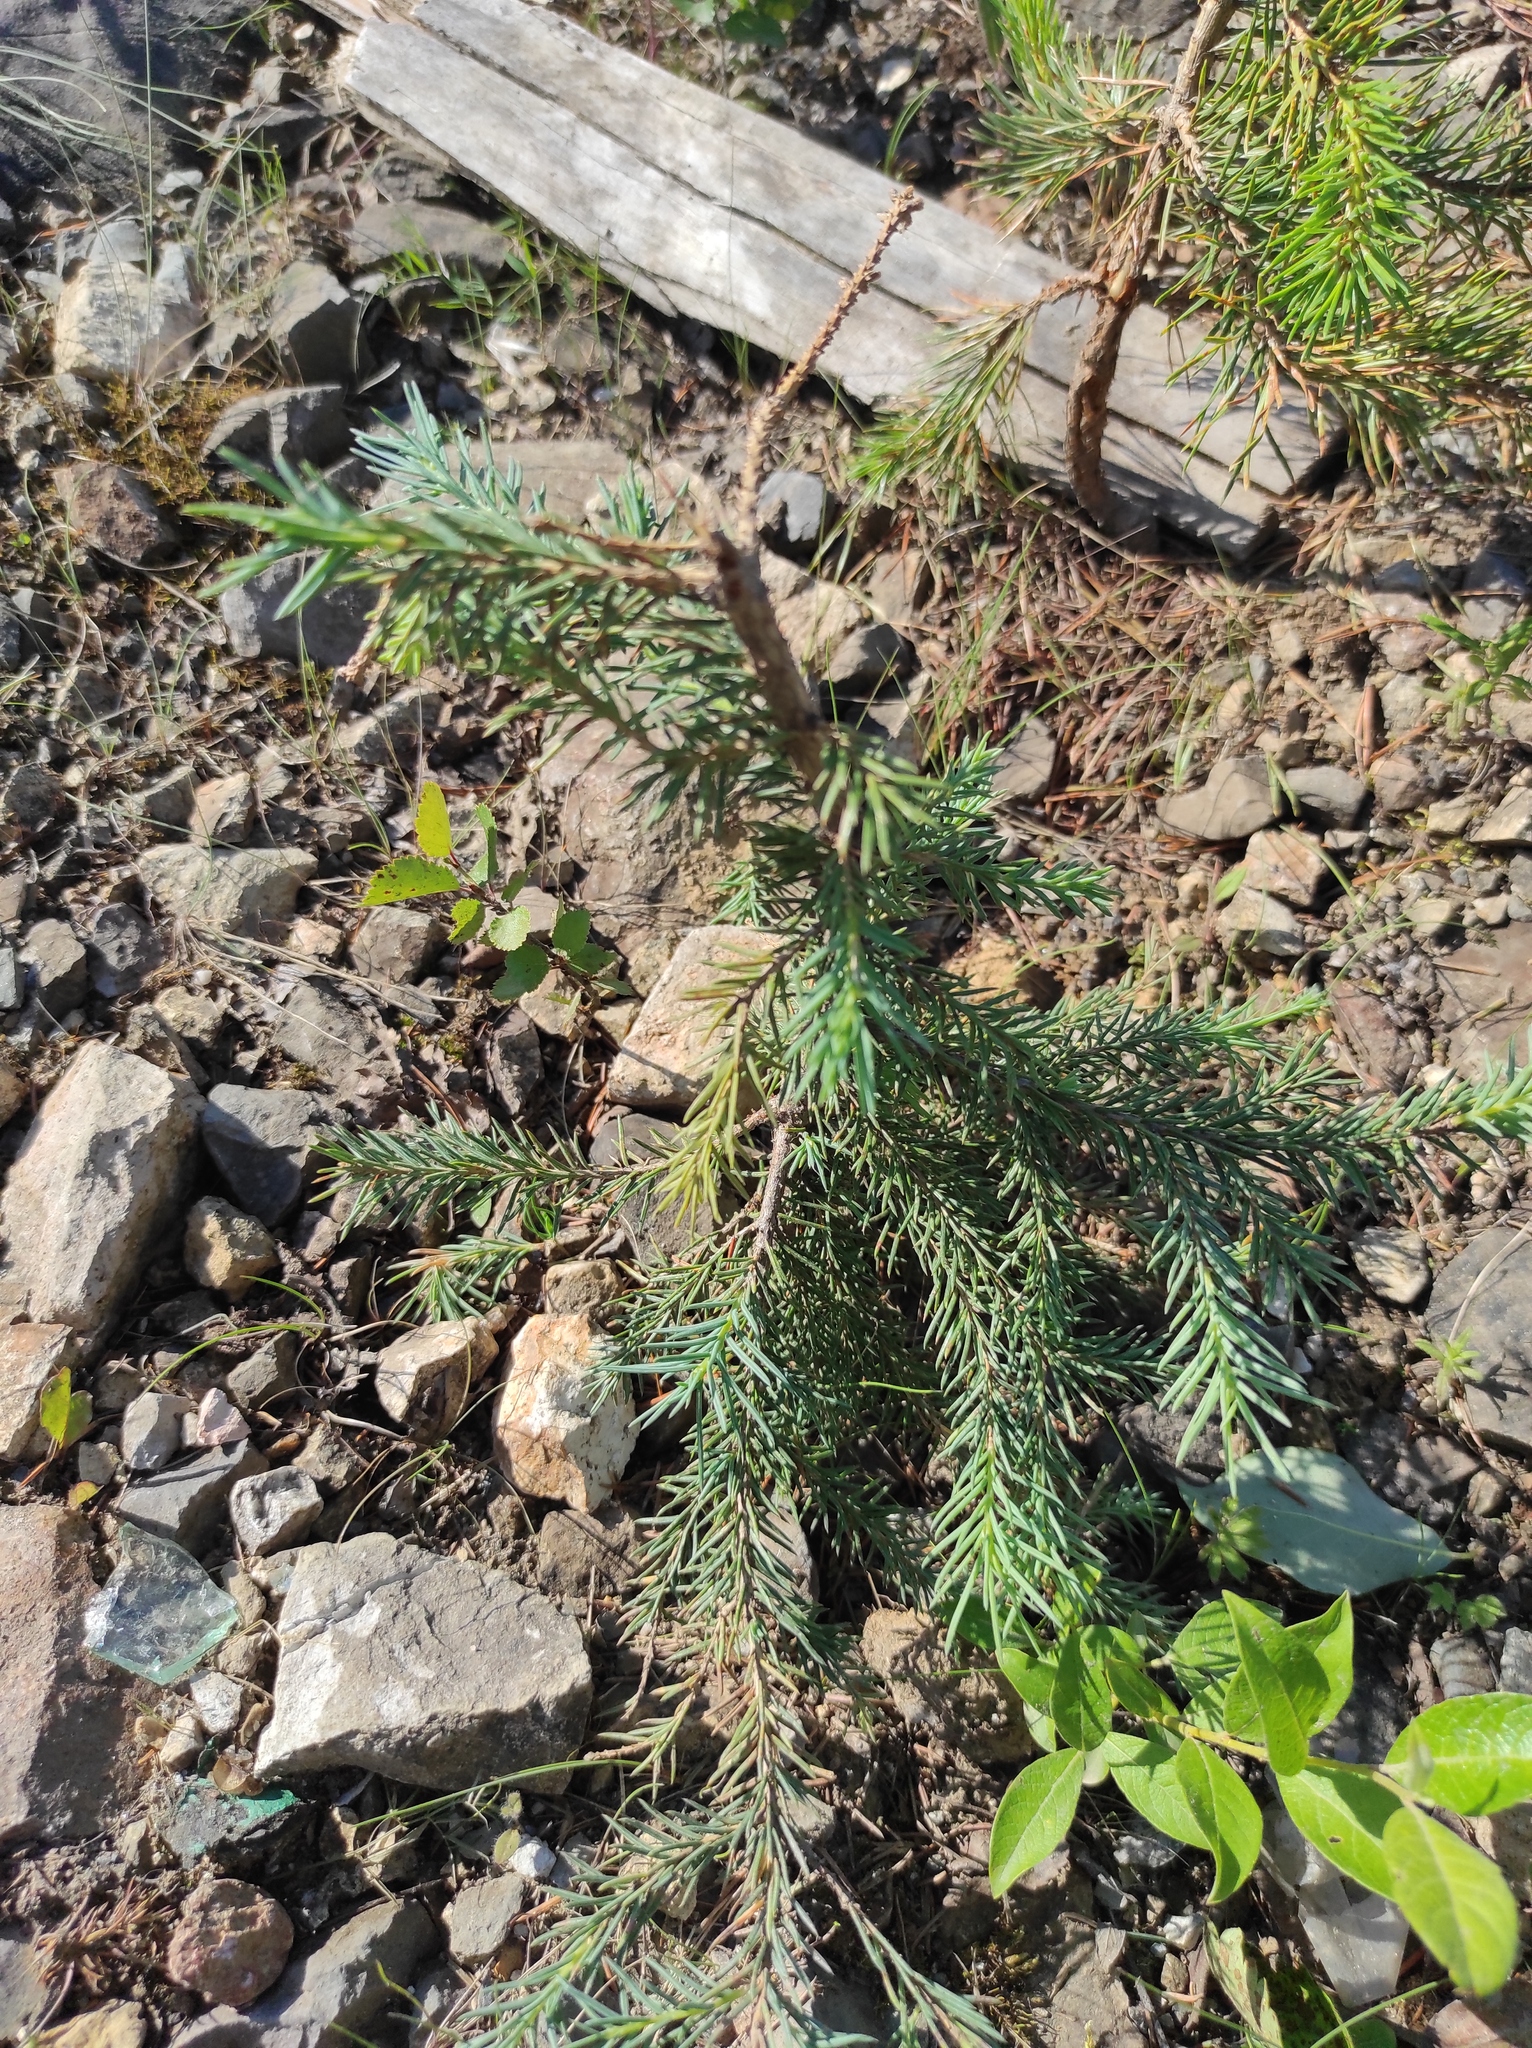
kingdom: Plantae
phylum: Tracheophyta
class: Pinopsida
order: Pinales
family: Pinaceae
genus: Picea
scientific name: Picea obovata
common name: Siberian spruce
